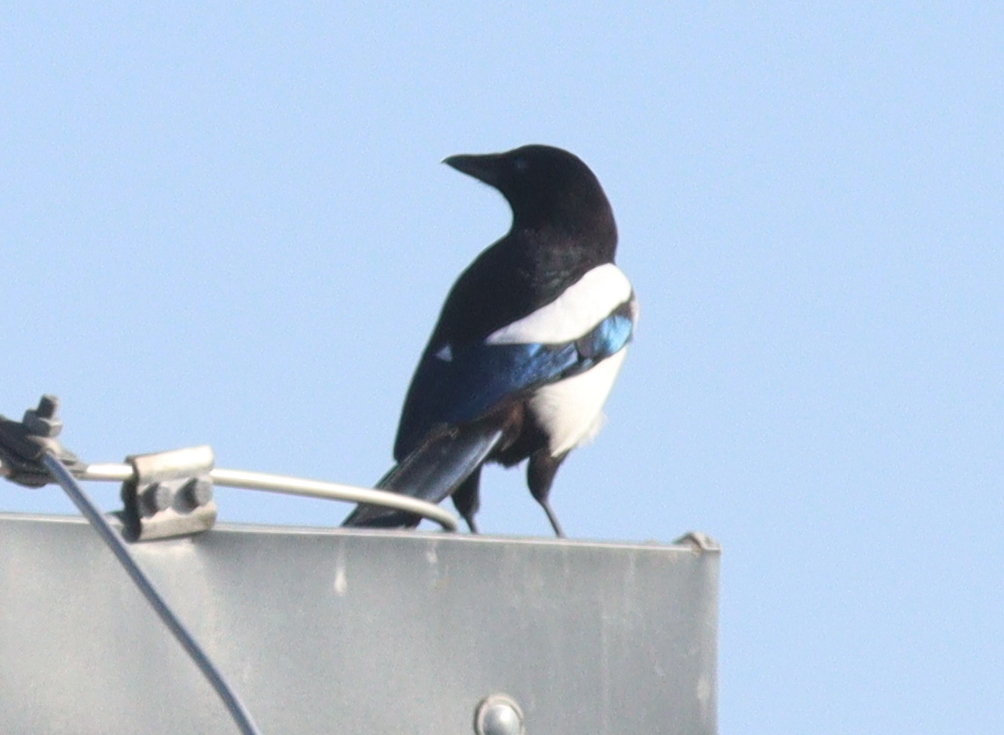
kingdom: Animalia
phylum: Chordata
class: Aves
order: Passeriformes
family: Corvidae
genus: Pica
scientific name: Pica pica
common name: Eurasian magpie
